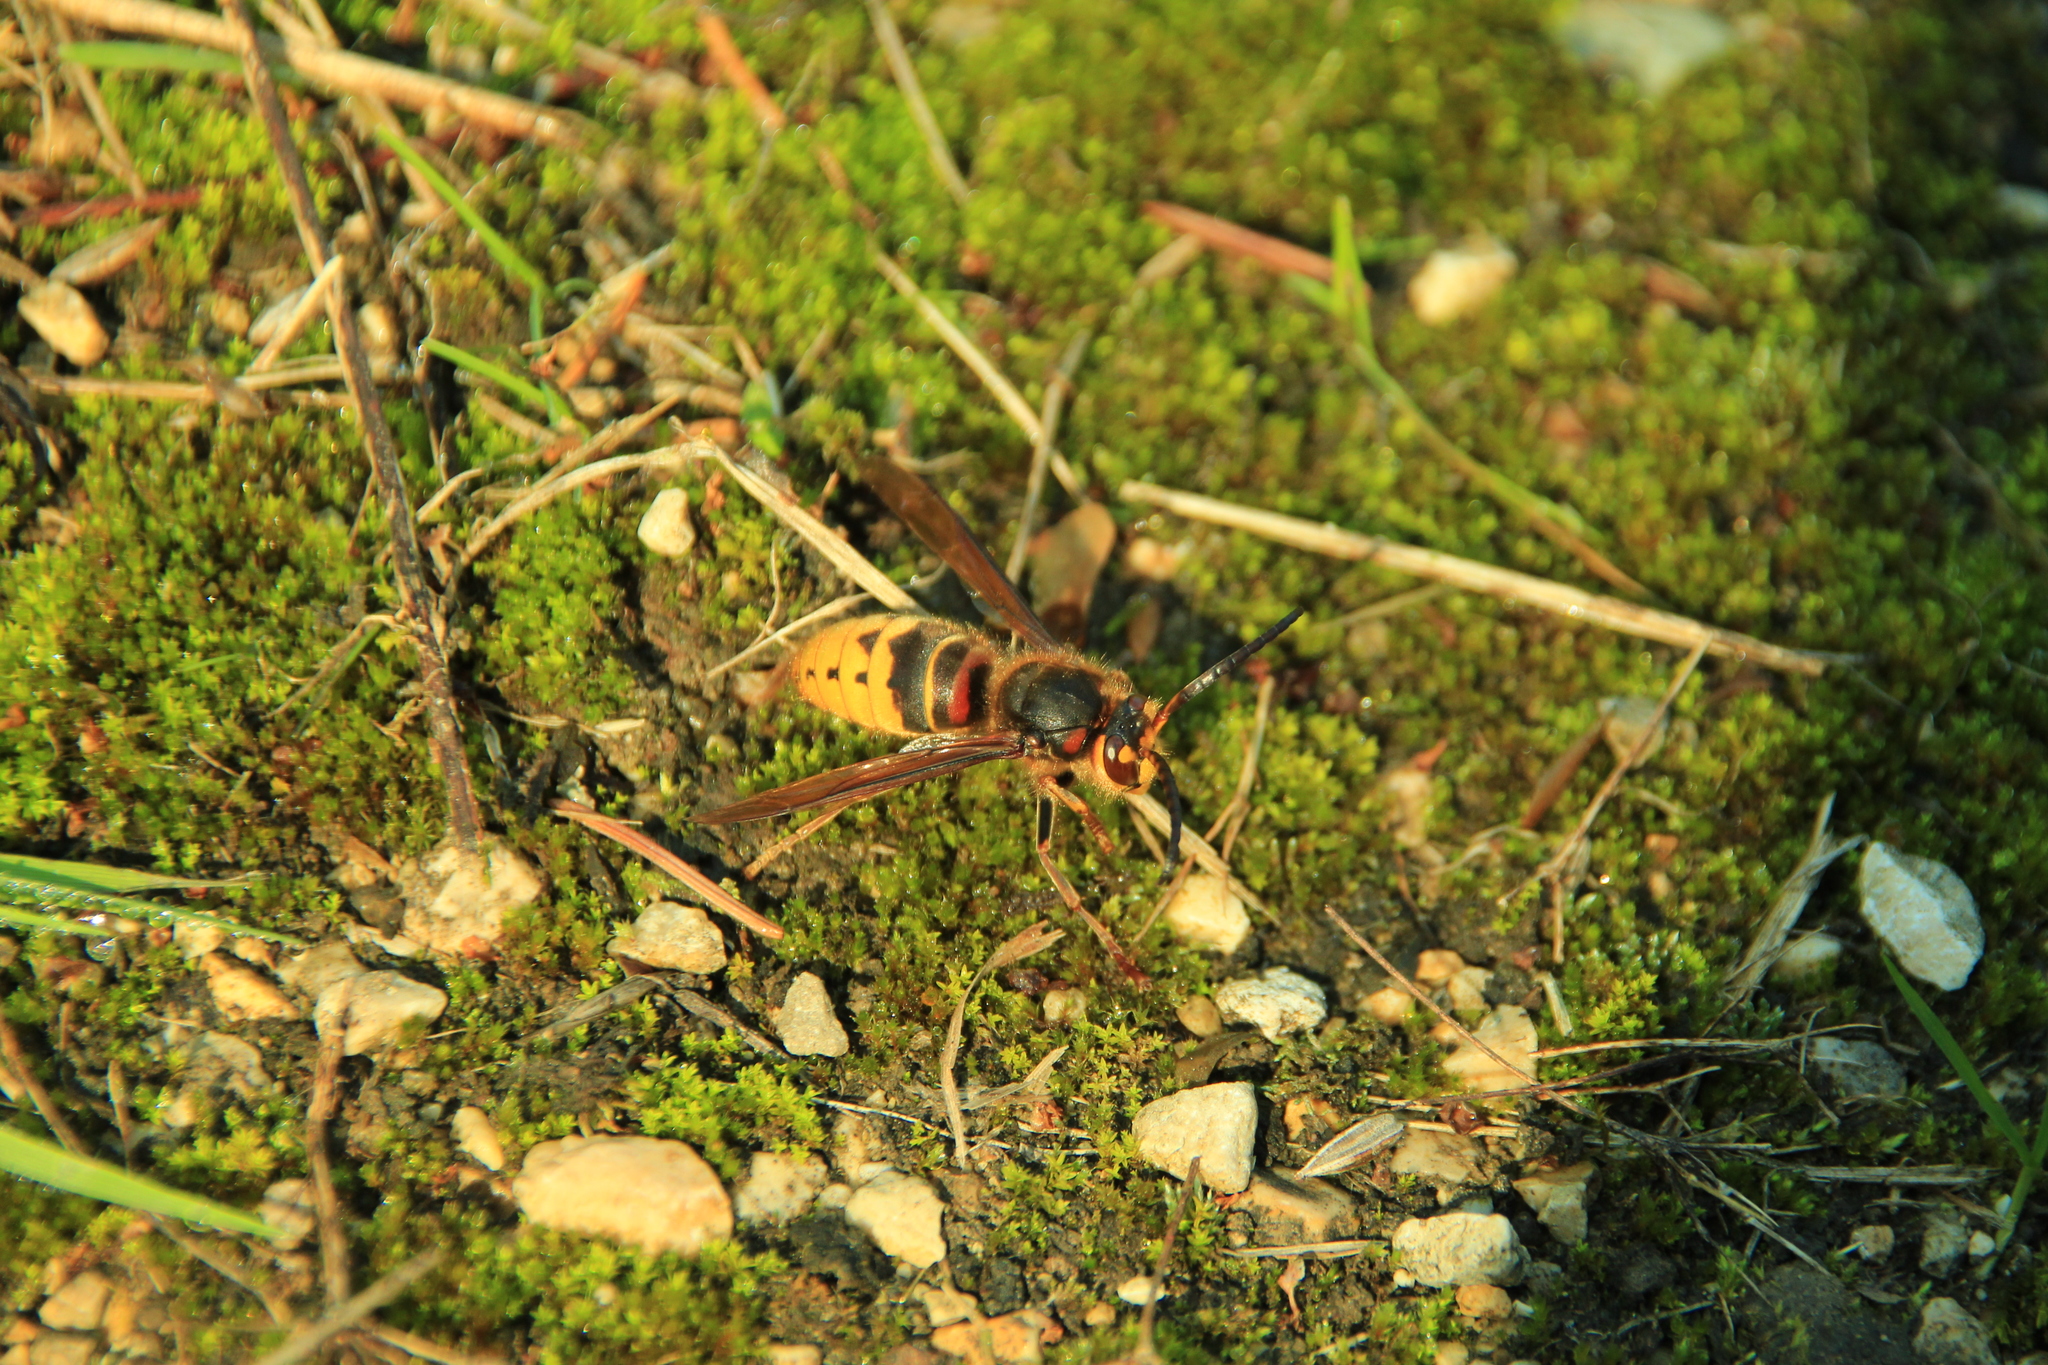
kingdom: Animalia
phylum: Arthropoda
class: Insecta
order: Hymenoptera
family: Vespidae
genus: Vespa
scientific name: Vespa crabro
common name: Hornet
